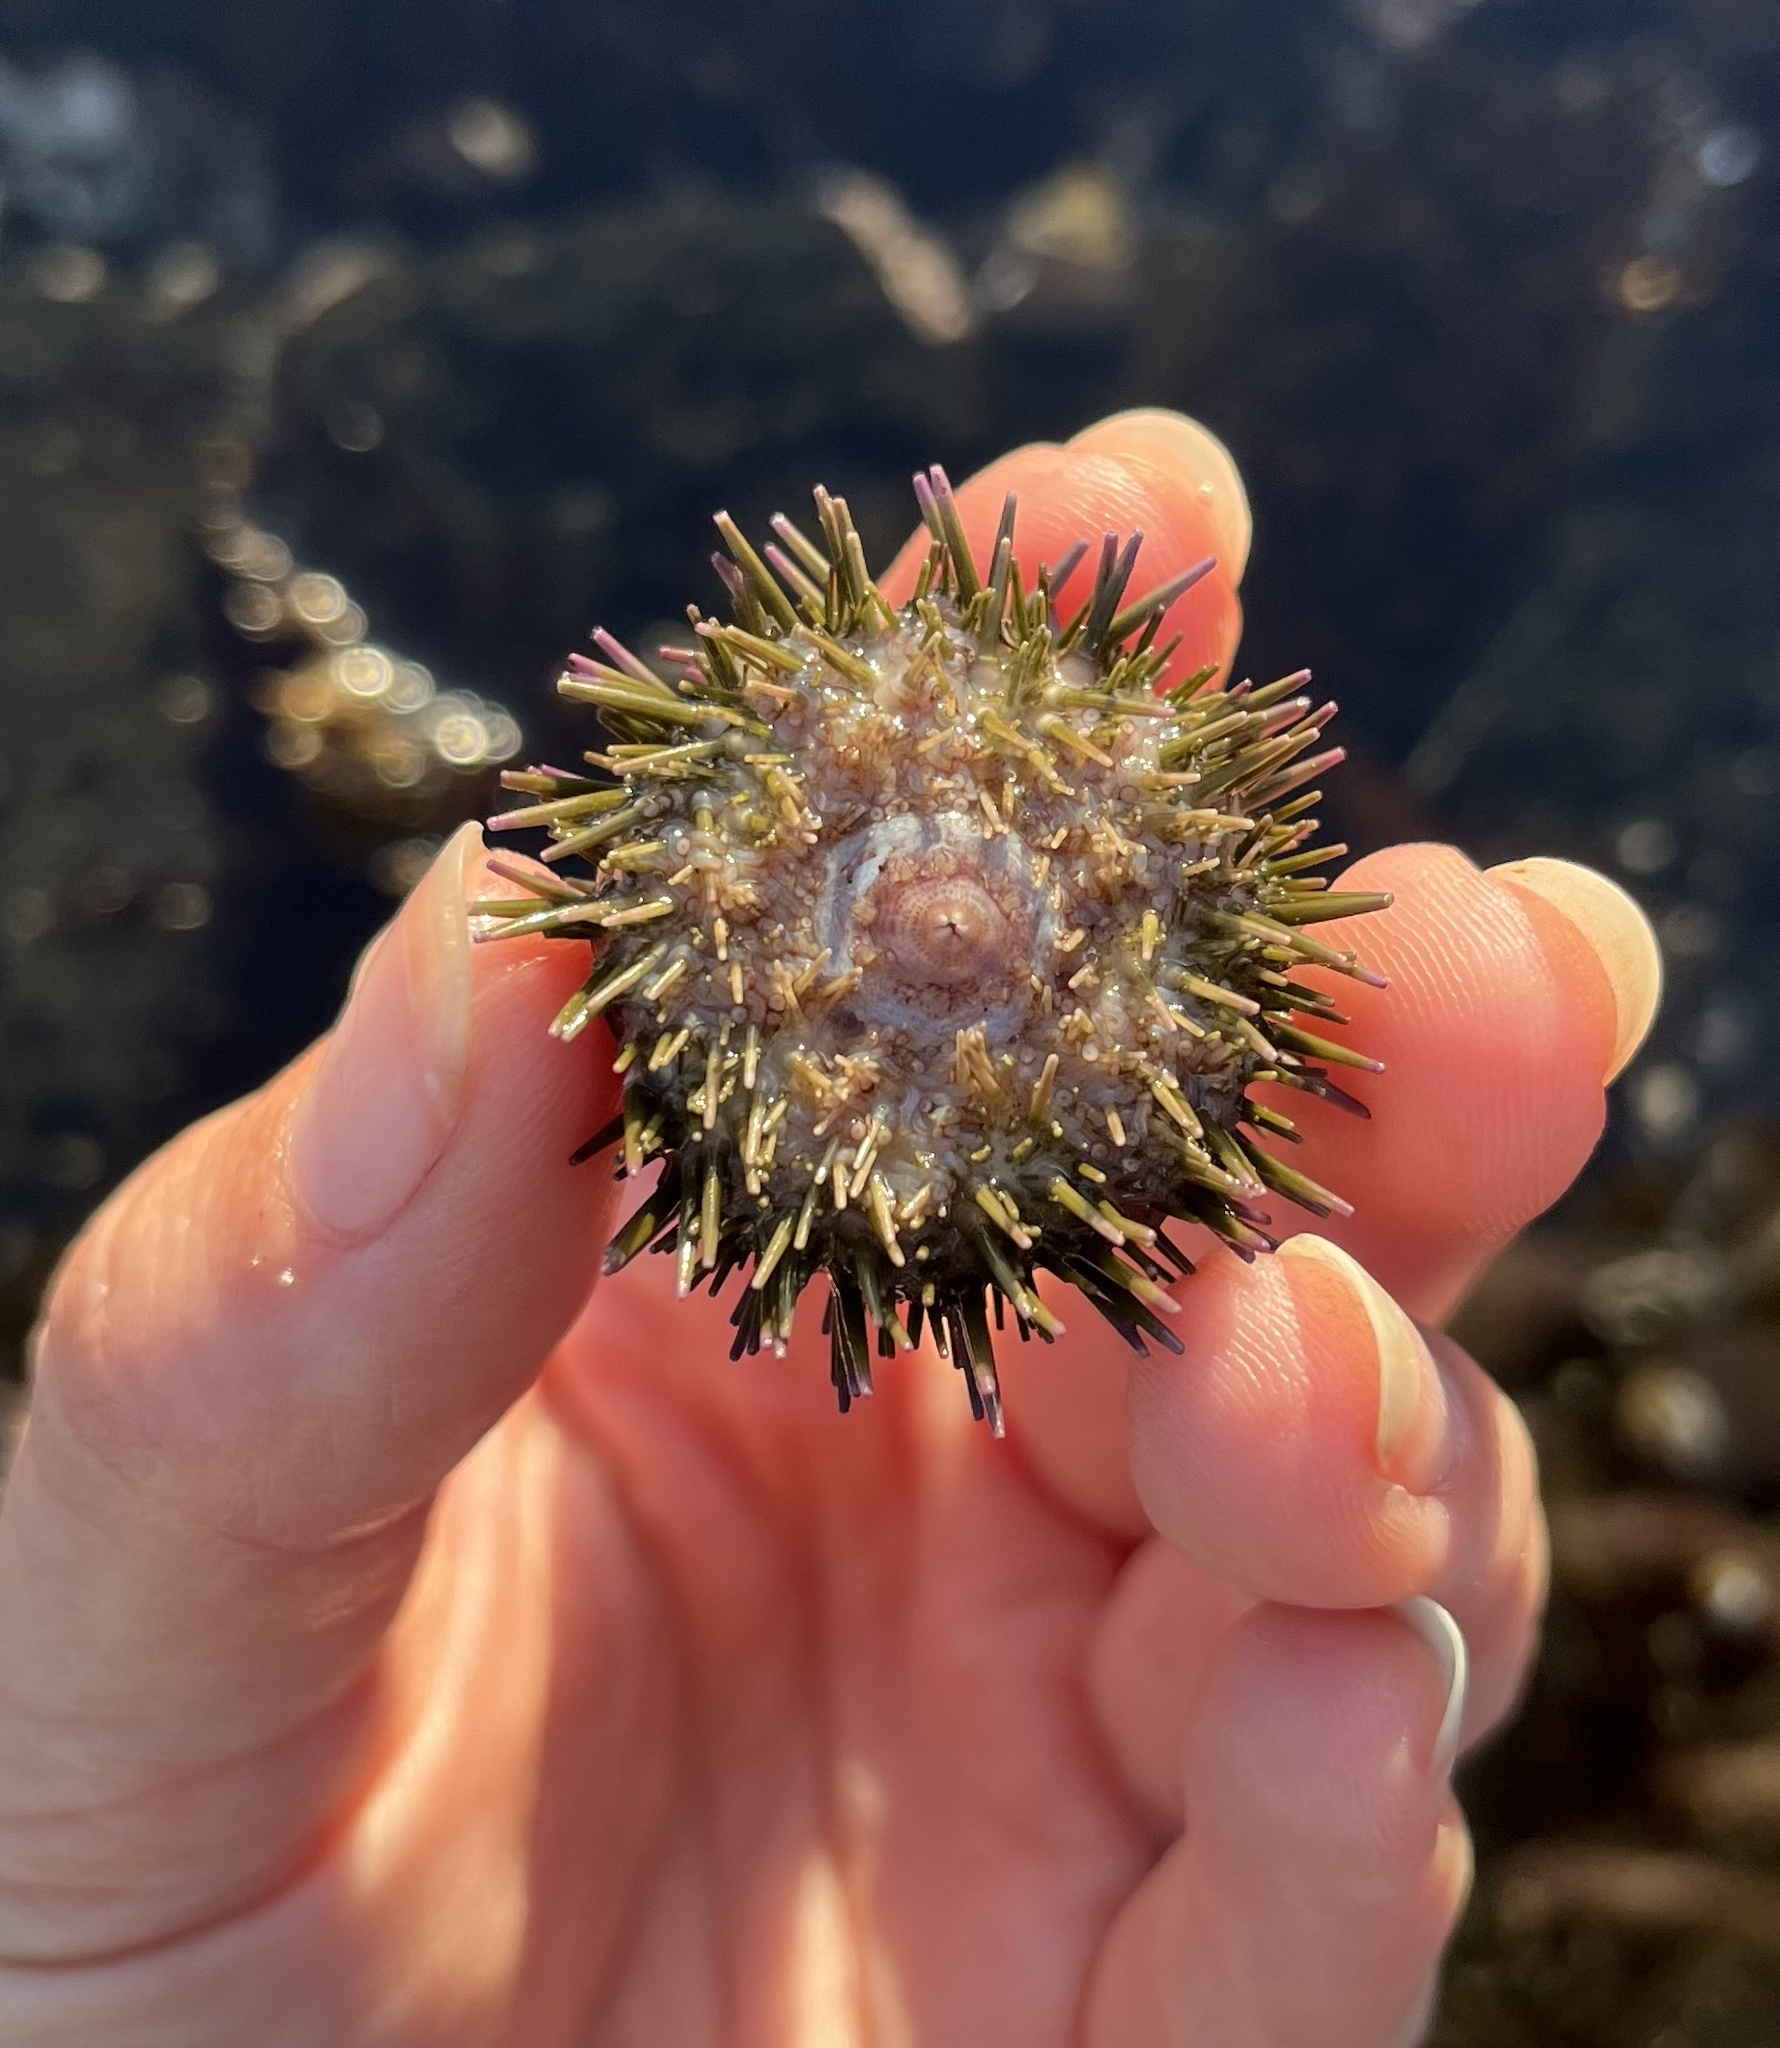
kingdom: Animalia
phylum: Echinodermata
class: Echinoidea
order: Camarodonta
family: Strongylocentrotidae
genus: Strongylocentrotus
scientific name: Strongylocentrotus purpuratus
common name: Purple sea urchin
